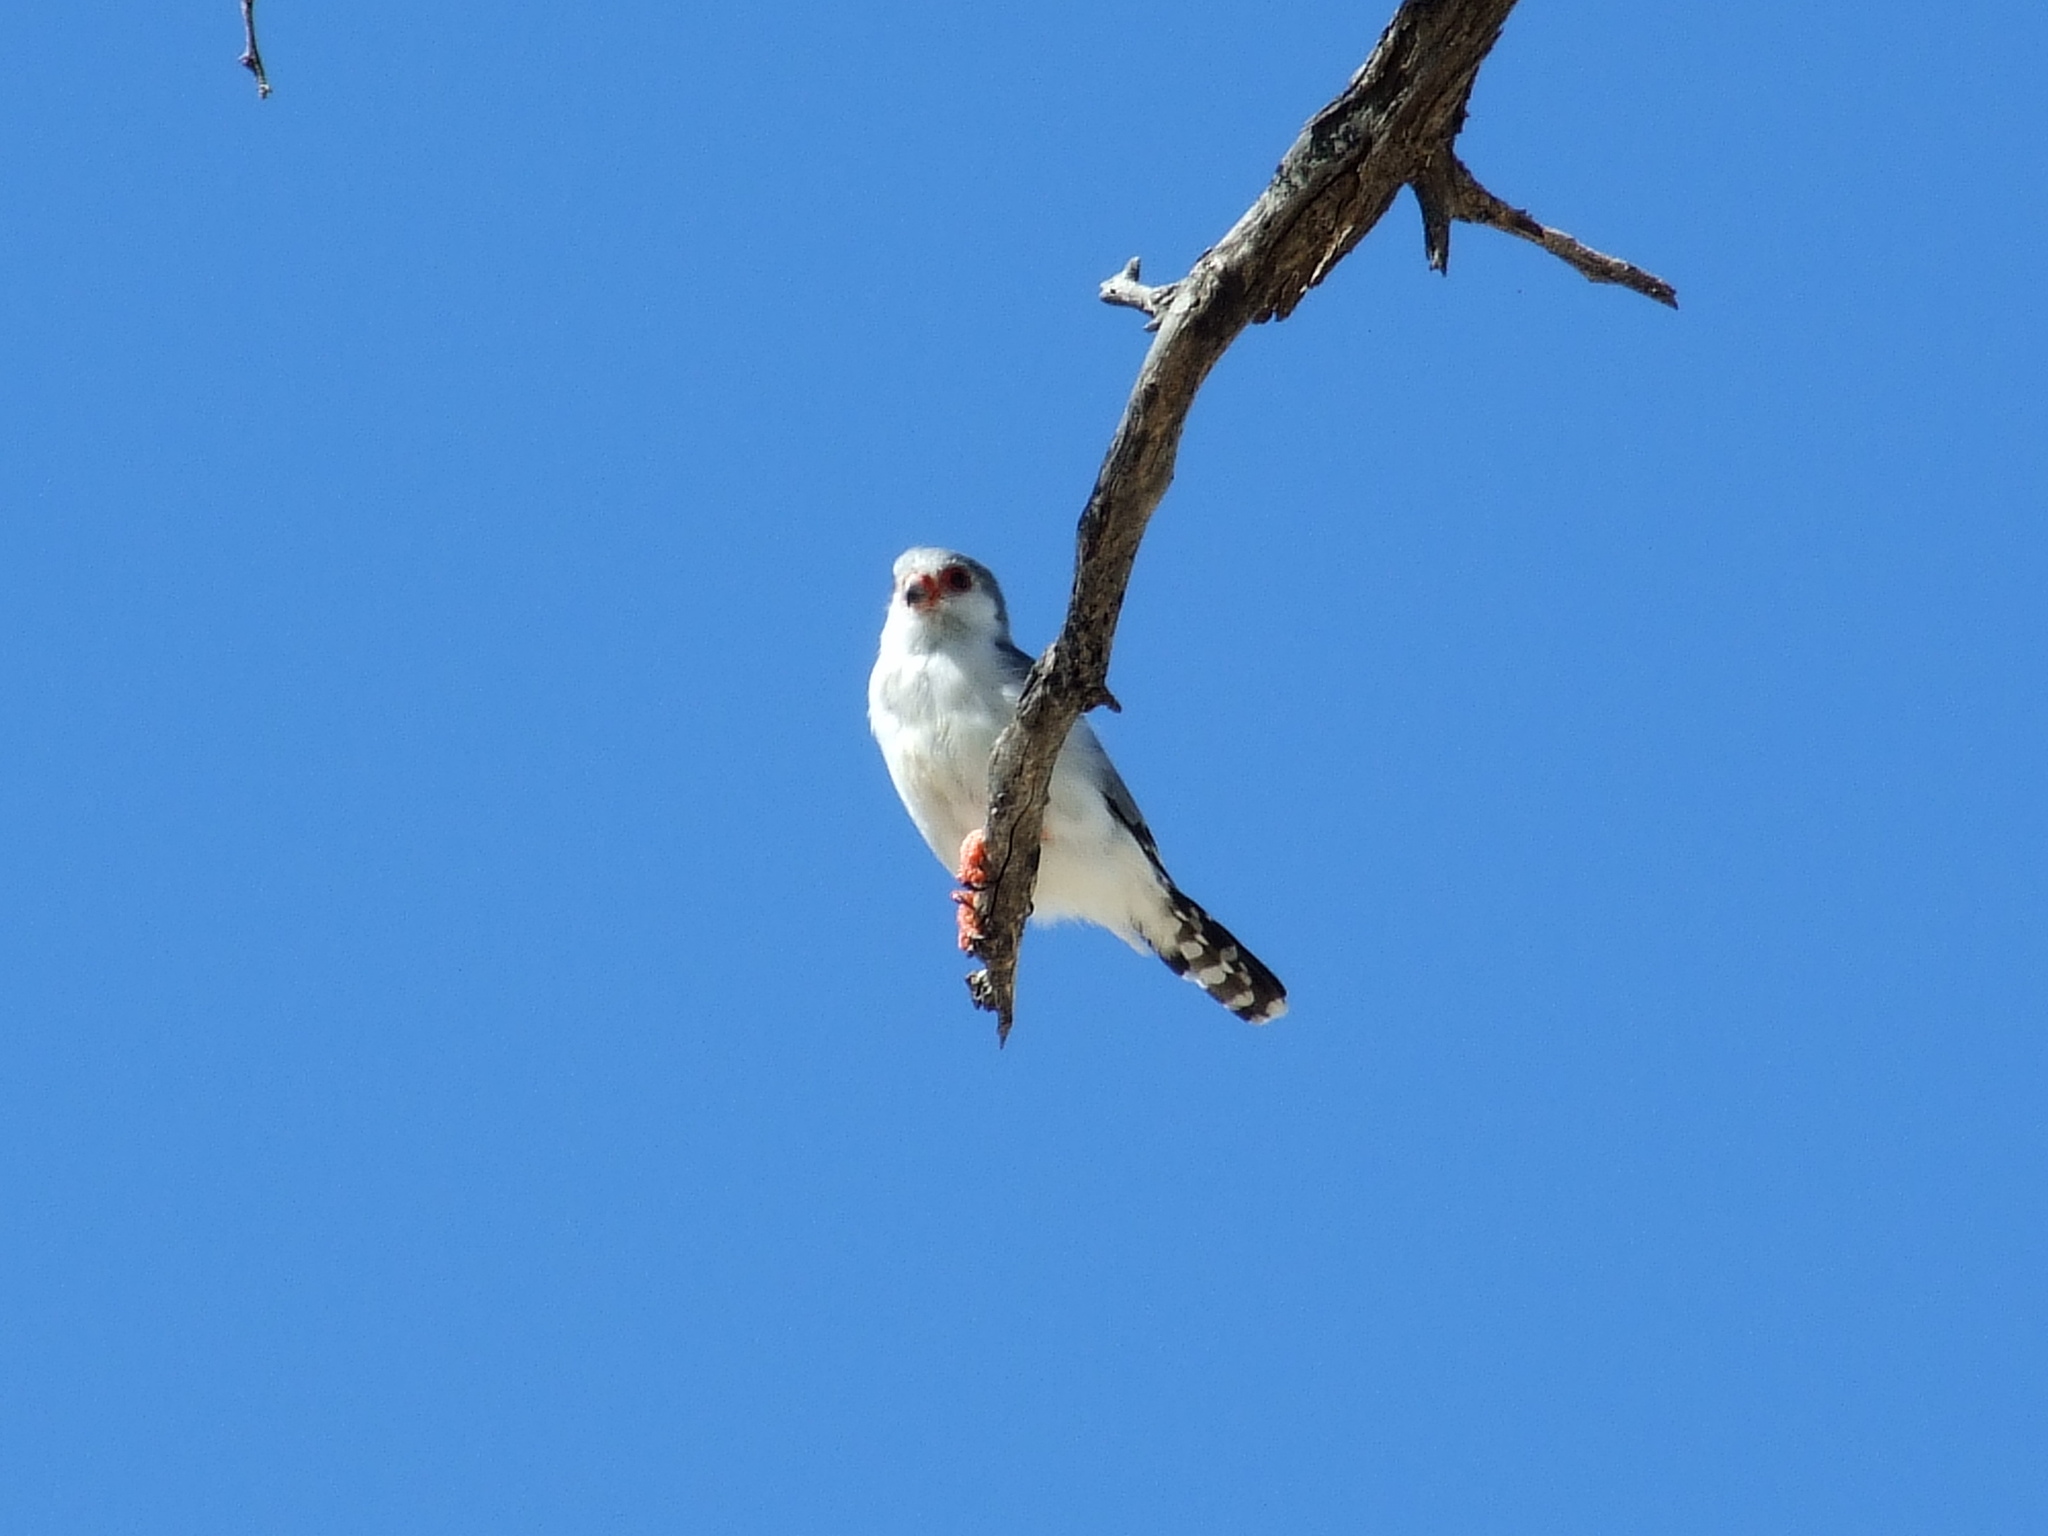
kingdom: Animalia
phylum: Chordata
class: Aves
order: Falconiformes
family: Falconidae
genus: Polihierax
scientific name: Polihierax semitorquatus
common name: Pygmy falcon
